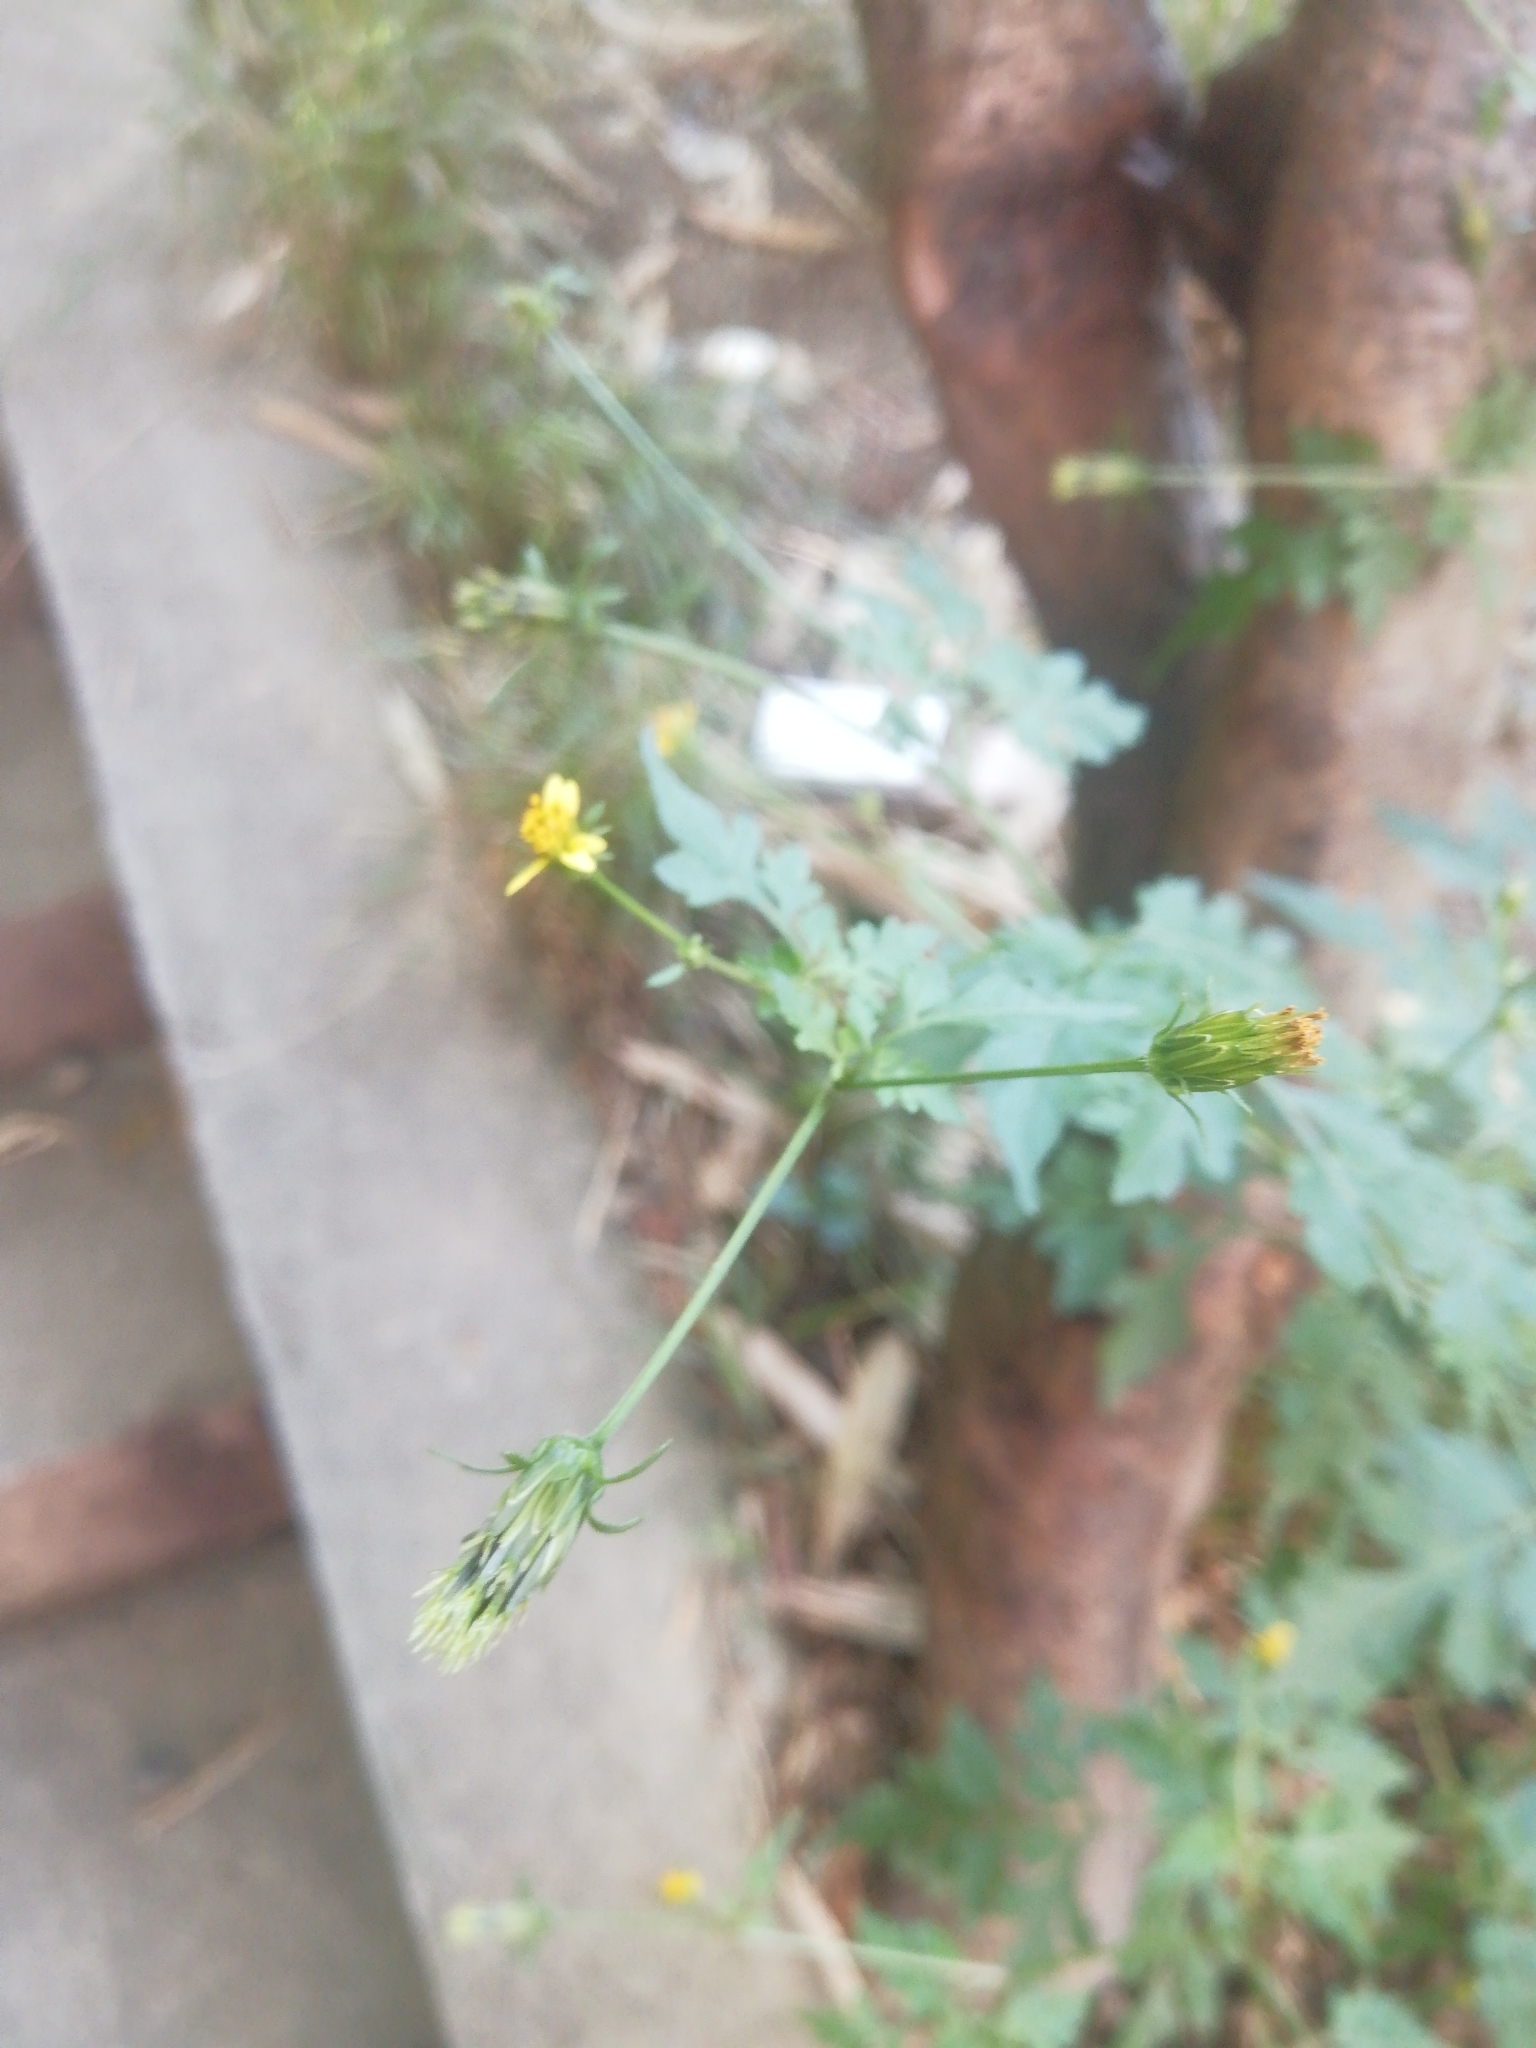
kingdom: Plantae
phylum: Tracheophyta
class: Magnoliopsida
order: Asterales
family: Asteraceae
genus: Bidens
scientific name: Bidens bipinnata
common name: Spanish-needles
